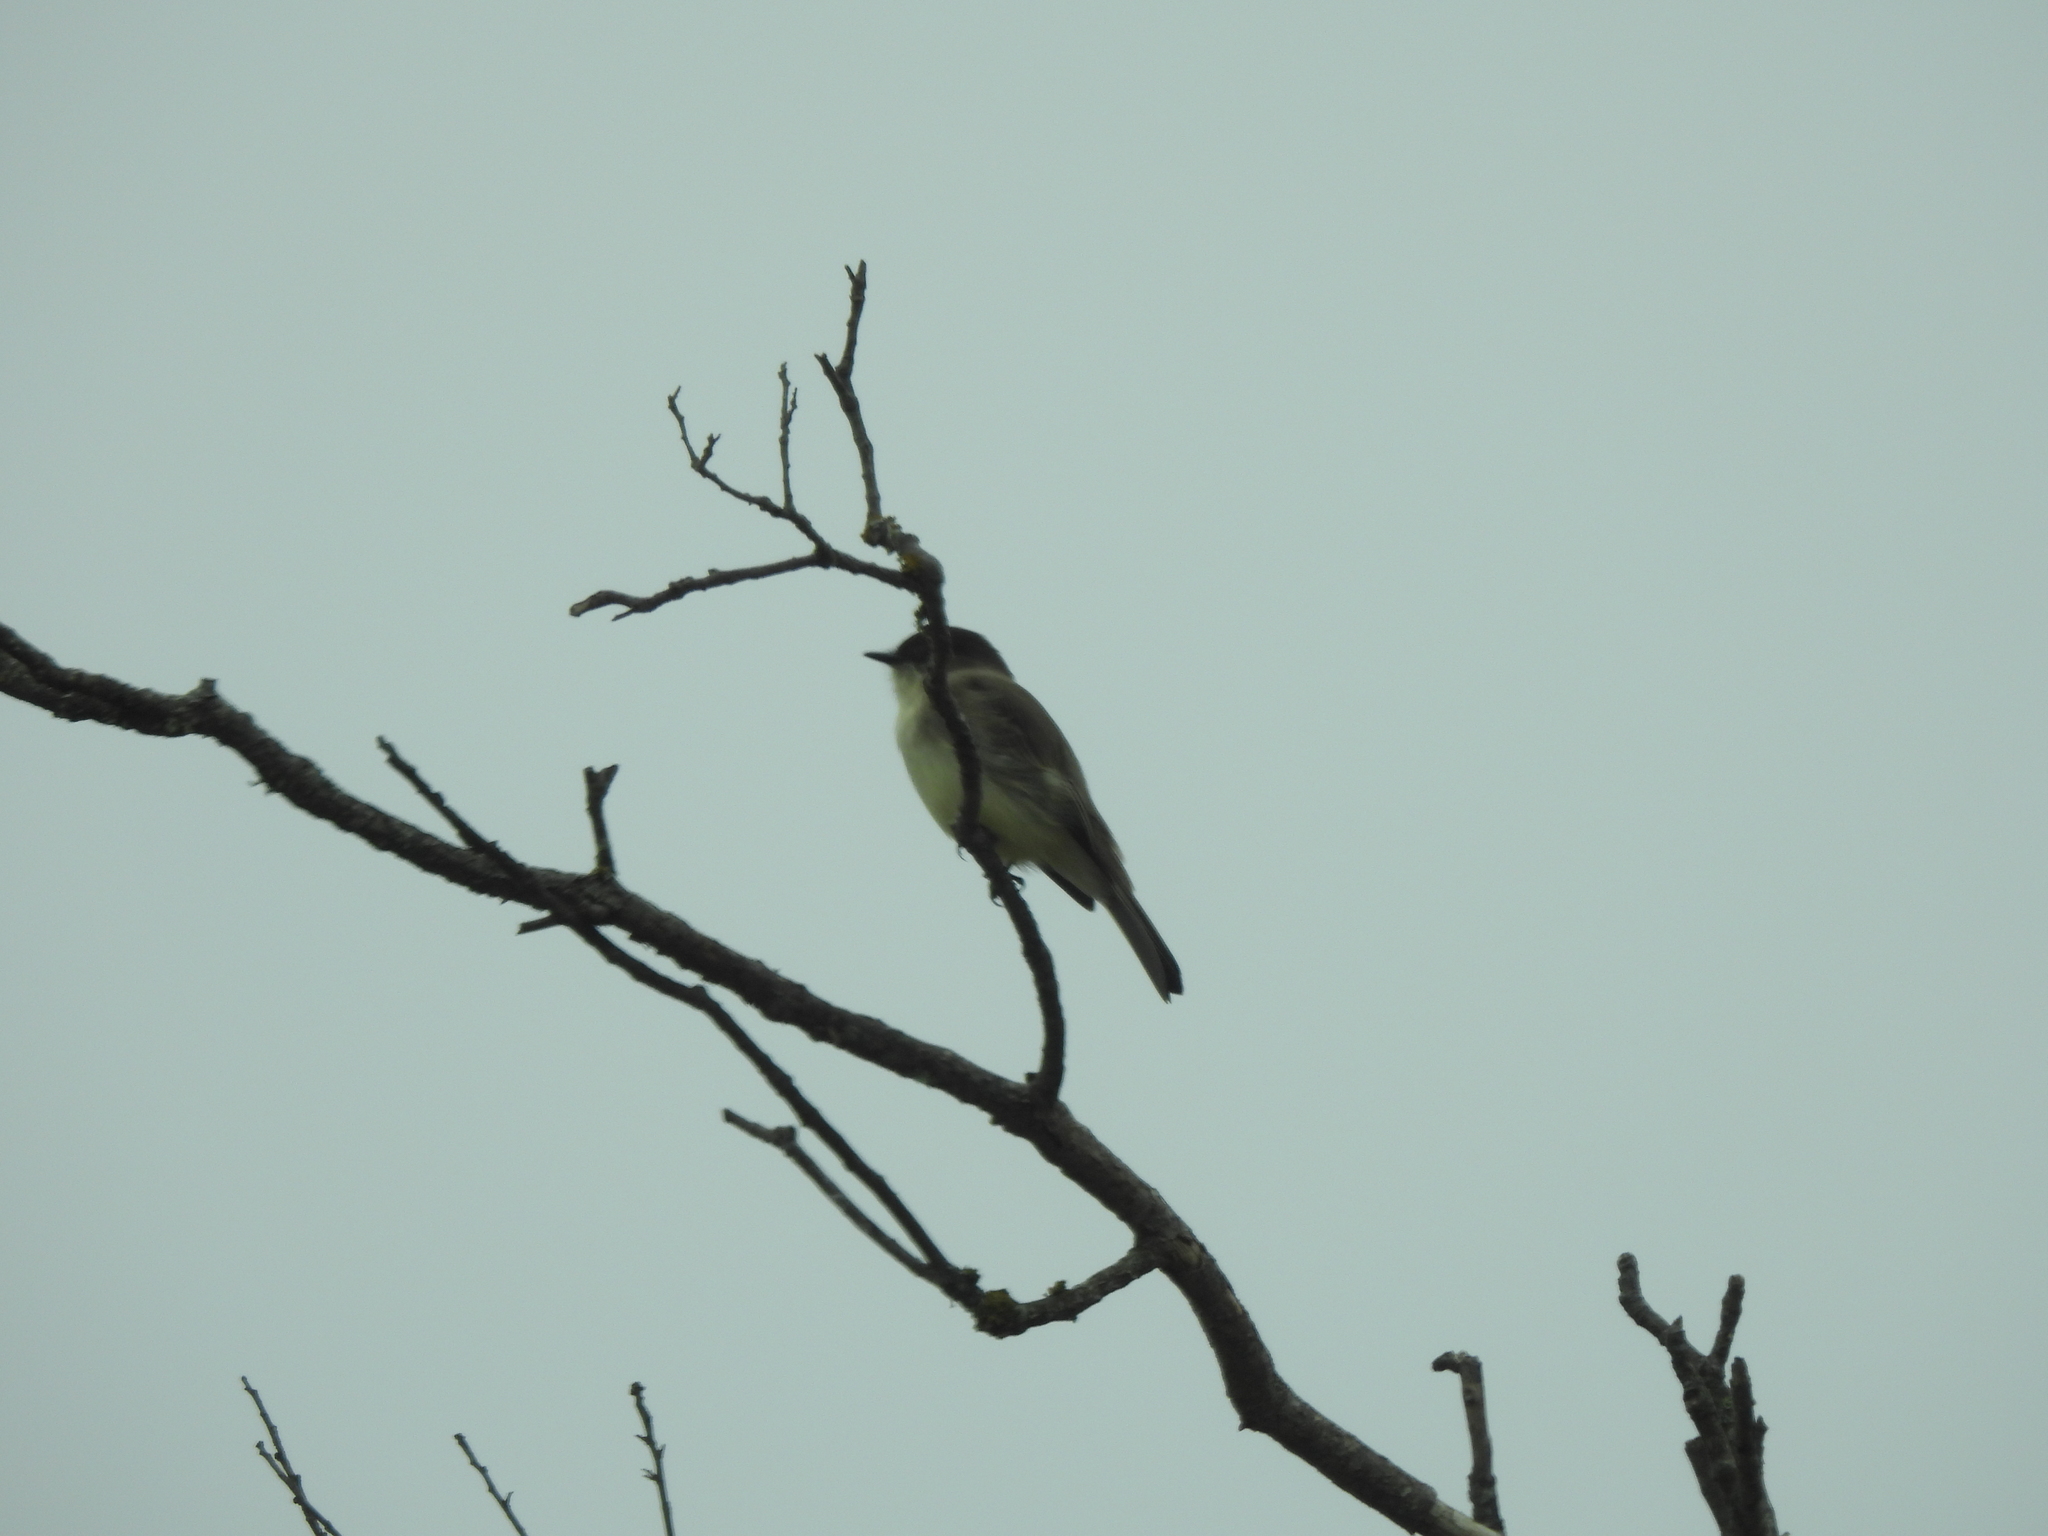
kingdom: Animalia
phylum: Chordata
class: Aves
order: Passeriformes
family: Tyrannidae
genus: Sayornis
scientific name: Sayornis phoebe
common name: Eastern phoebe
